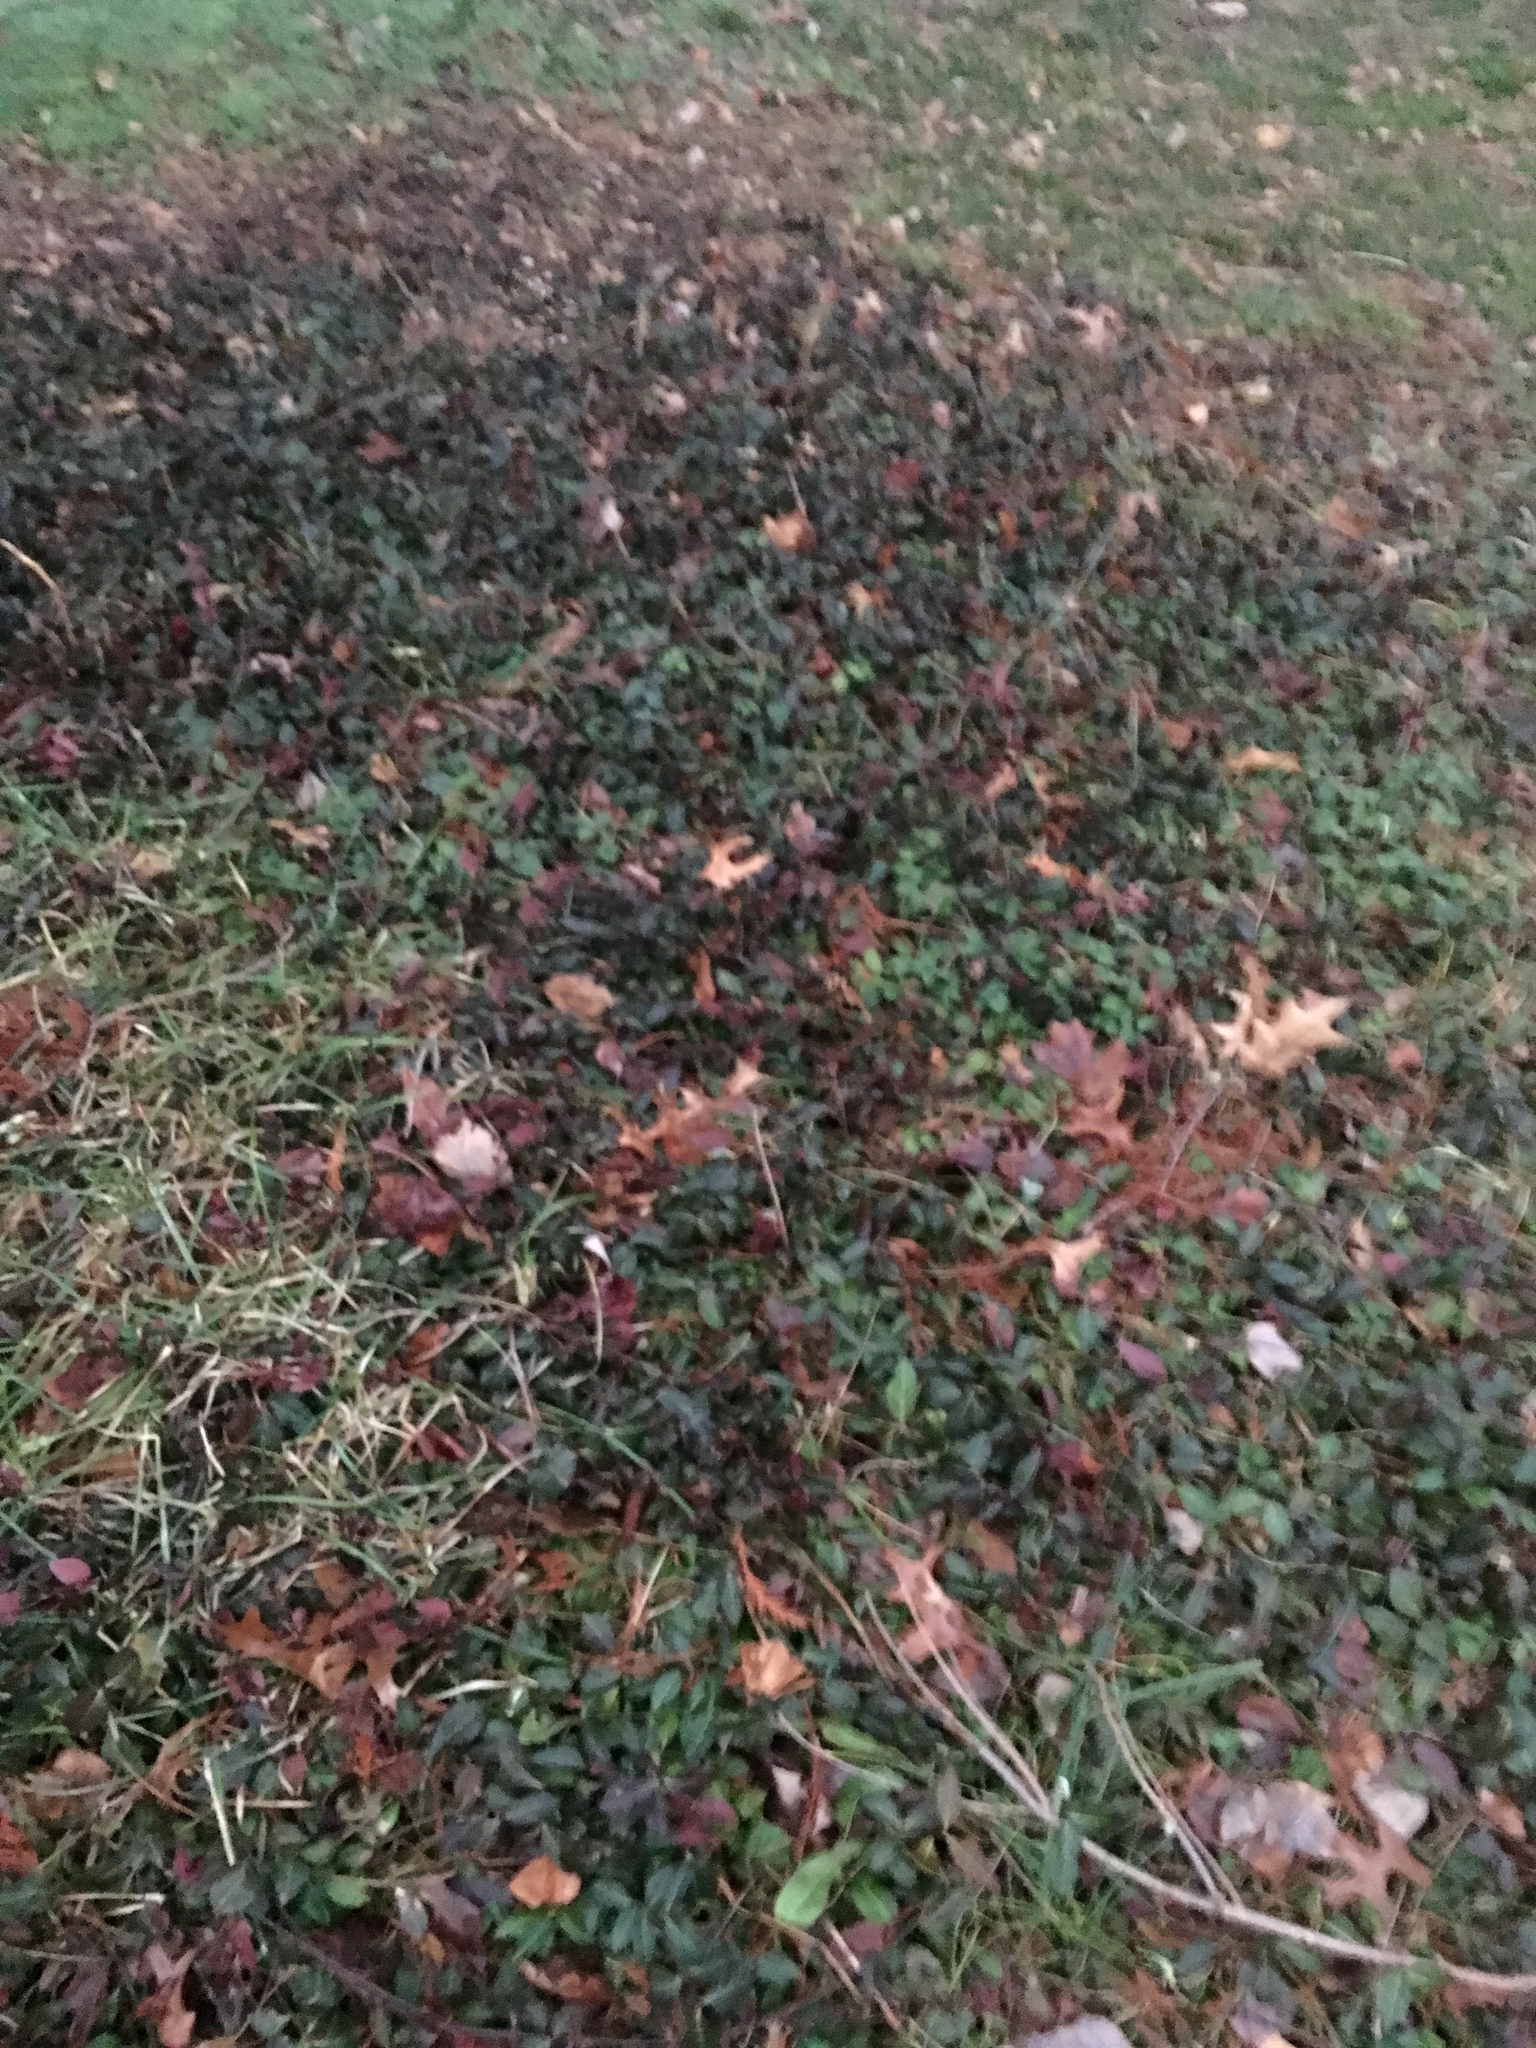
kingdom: Plantae
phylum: Tracheophyta
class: Magnoliopsida
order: Celastrales
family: Celastraceae
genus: Euonymus
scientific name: Euonymus fortunei
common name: Climbing euonymus
